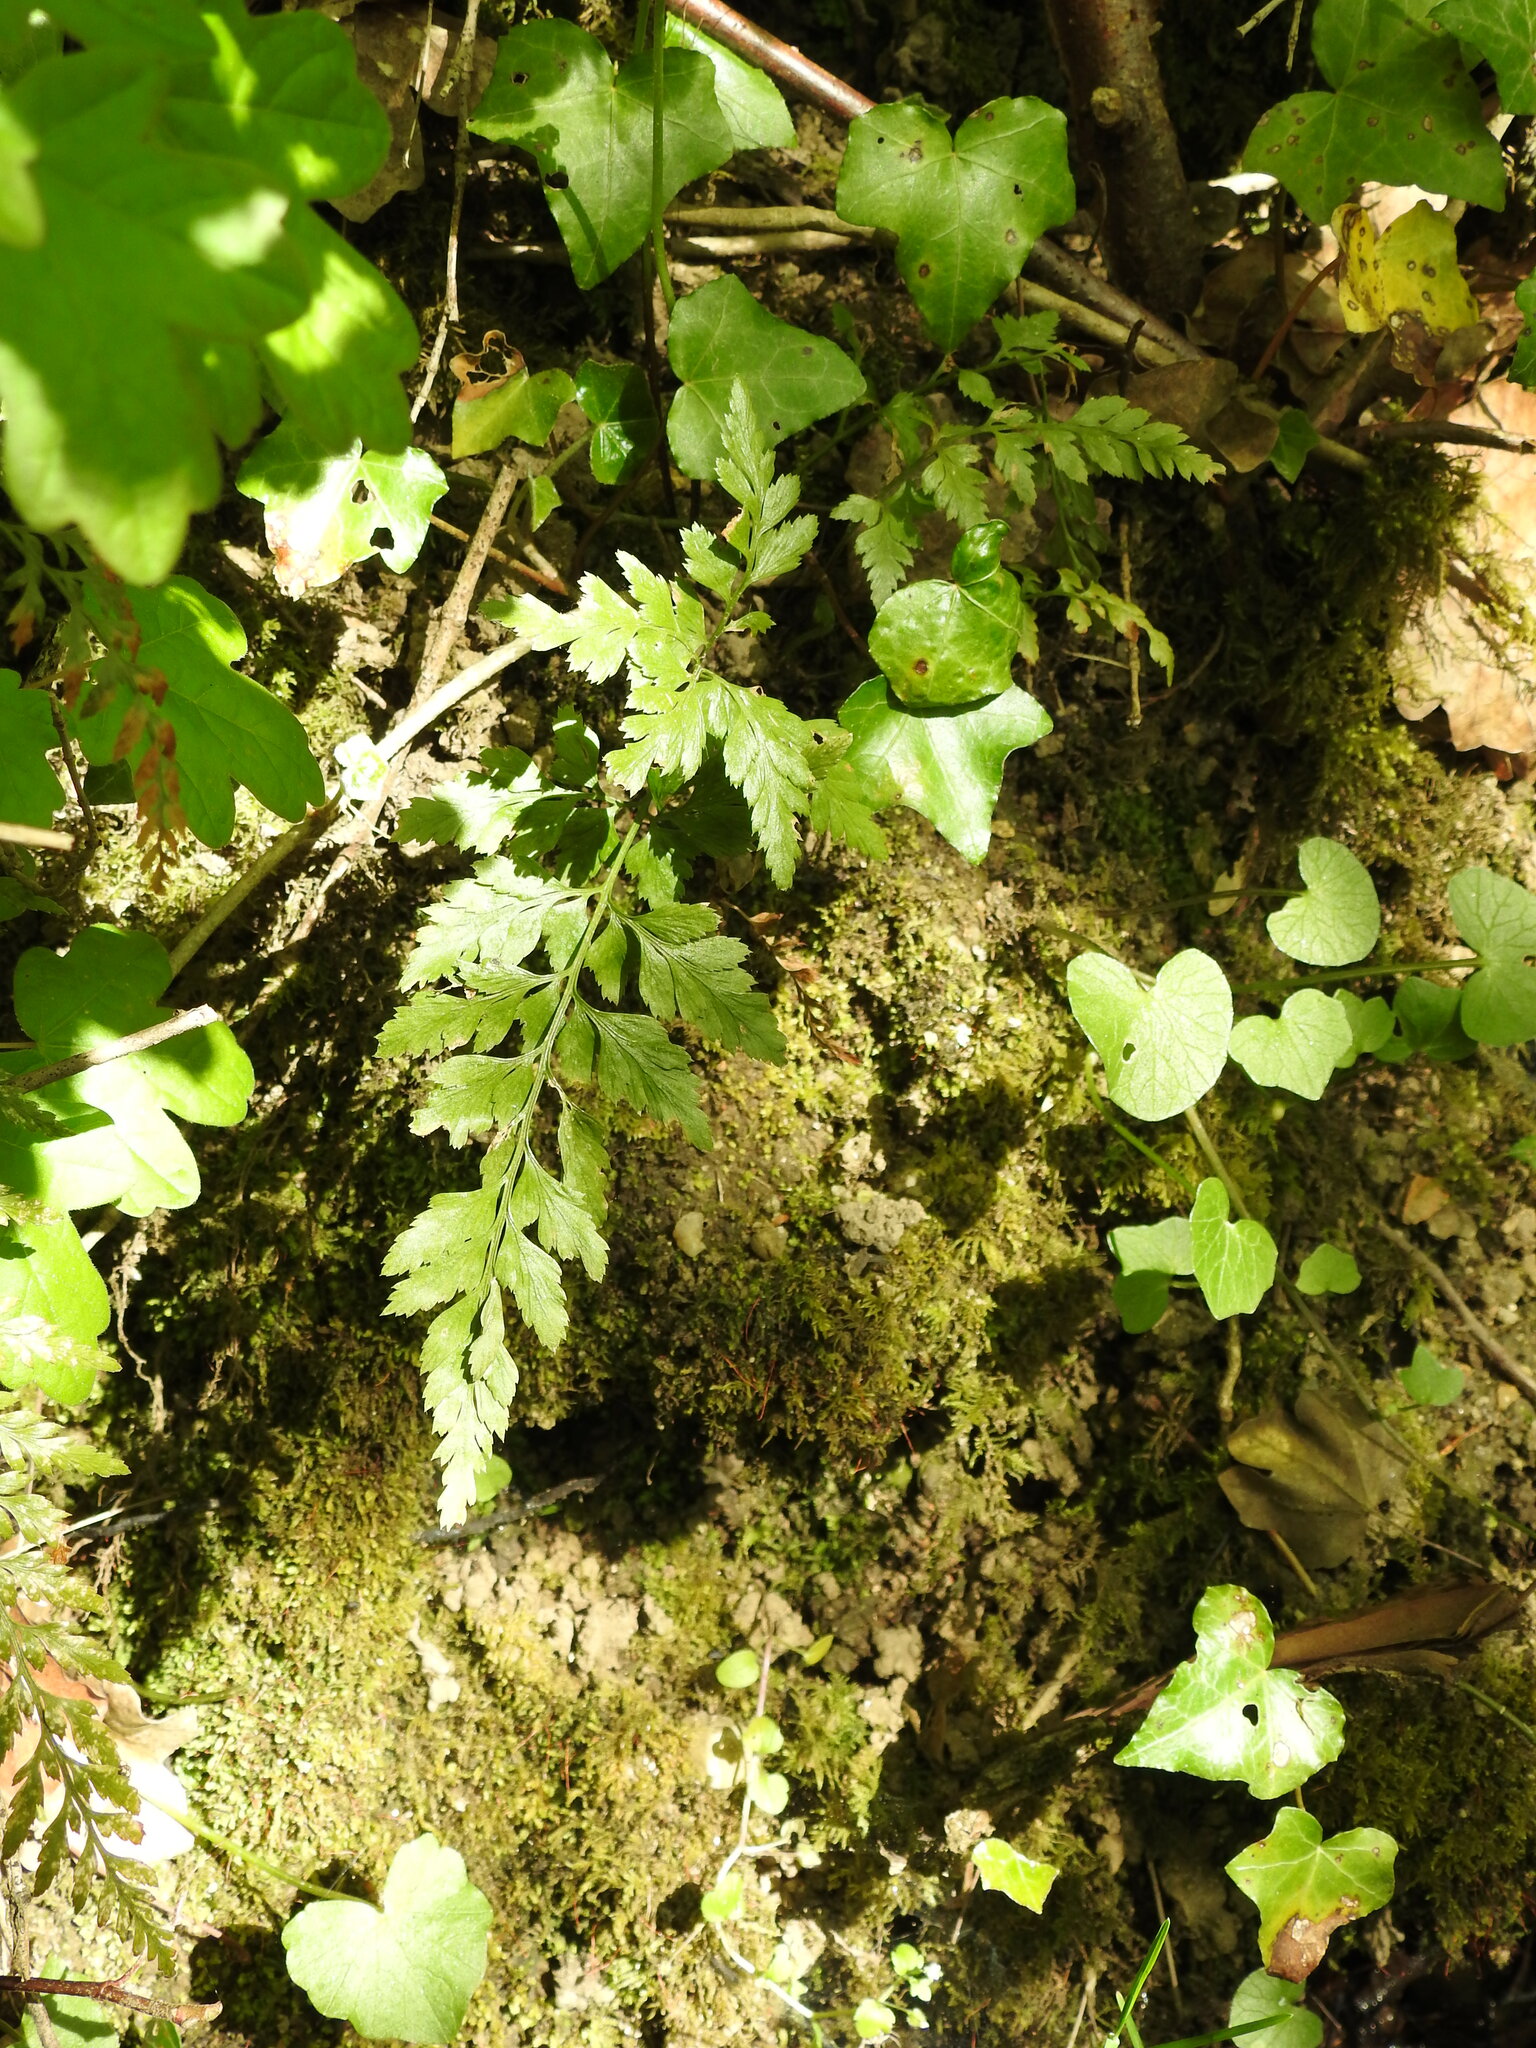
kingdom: Plantae
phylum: Tracheophyta
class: Polypodiopsida
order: Polypodiales
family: Aspleniaceae
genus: Asplenium
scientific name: Asplenium adiantum-nigrum
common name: Black spleenwort
